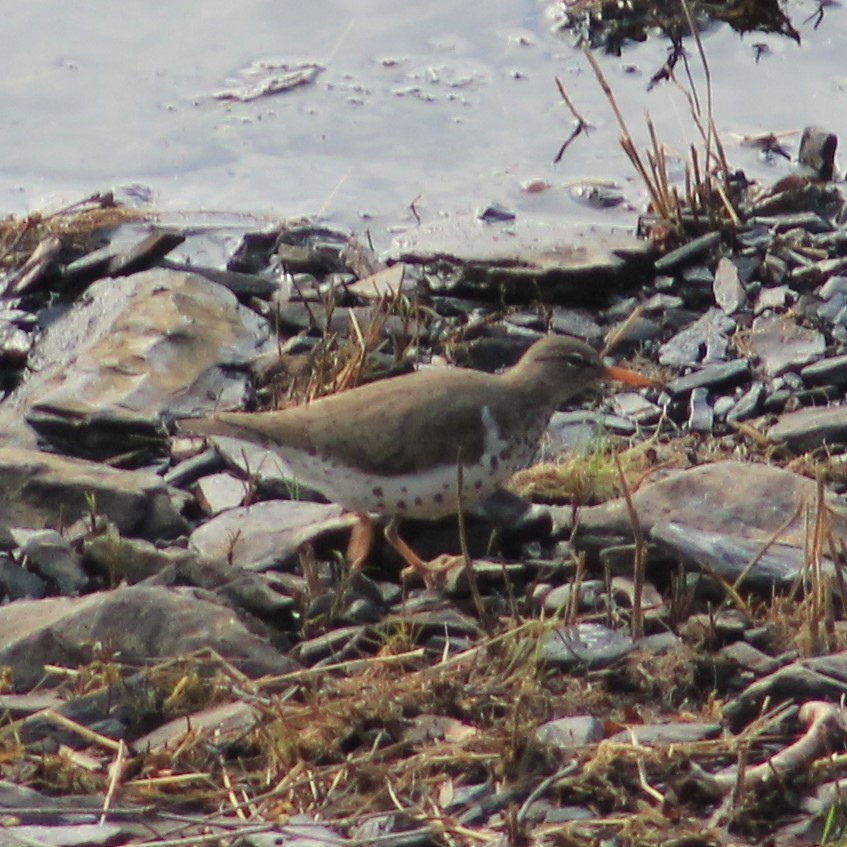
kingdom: Animalia
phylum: Chordata
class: Aves
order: Charadriiformes
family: Scolopacidae
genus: Actitis
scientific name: Actitis macularius
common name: Spotted sandpiper
